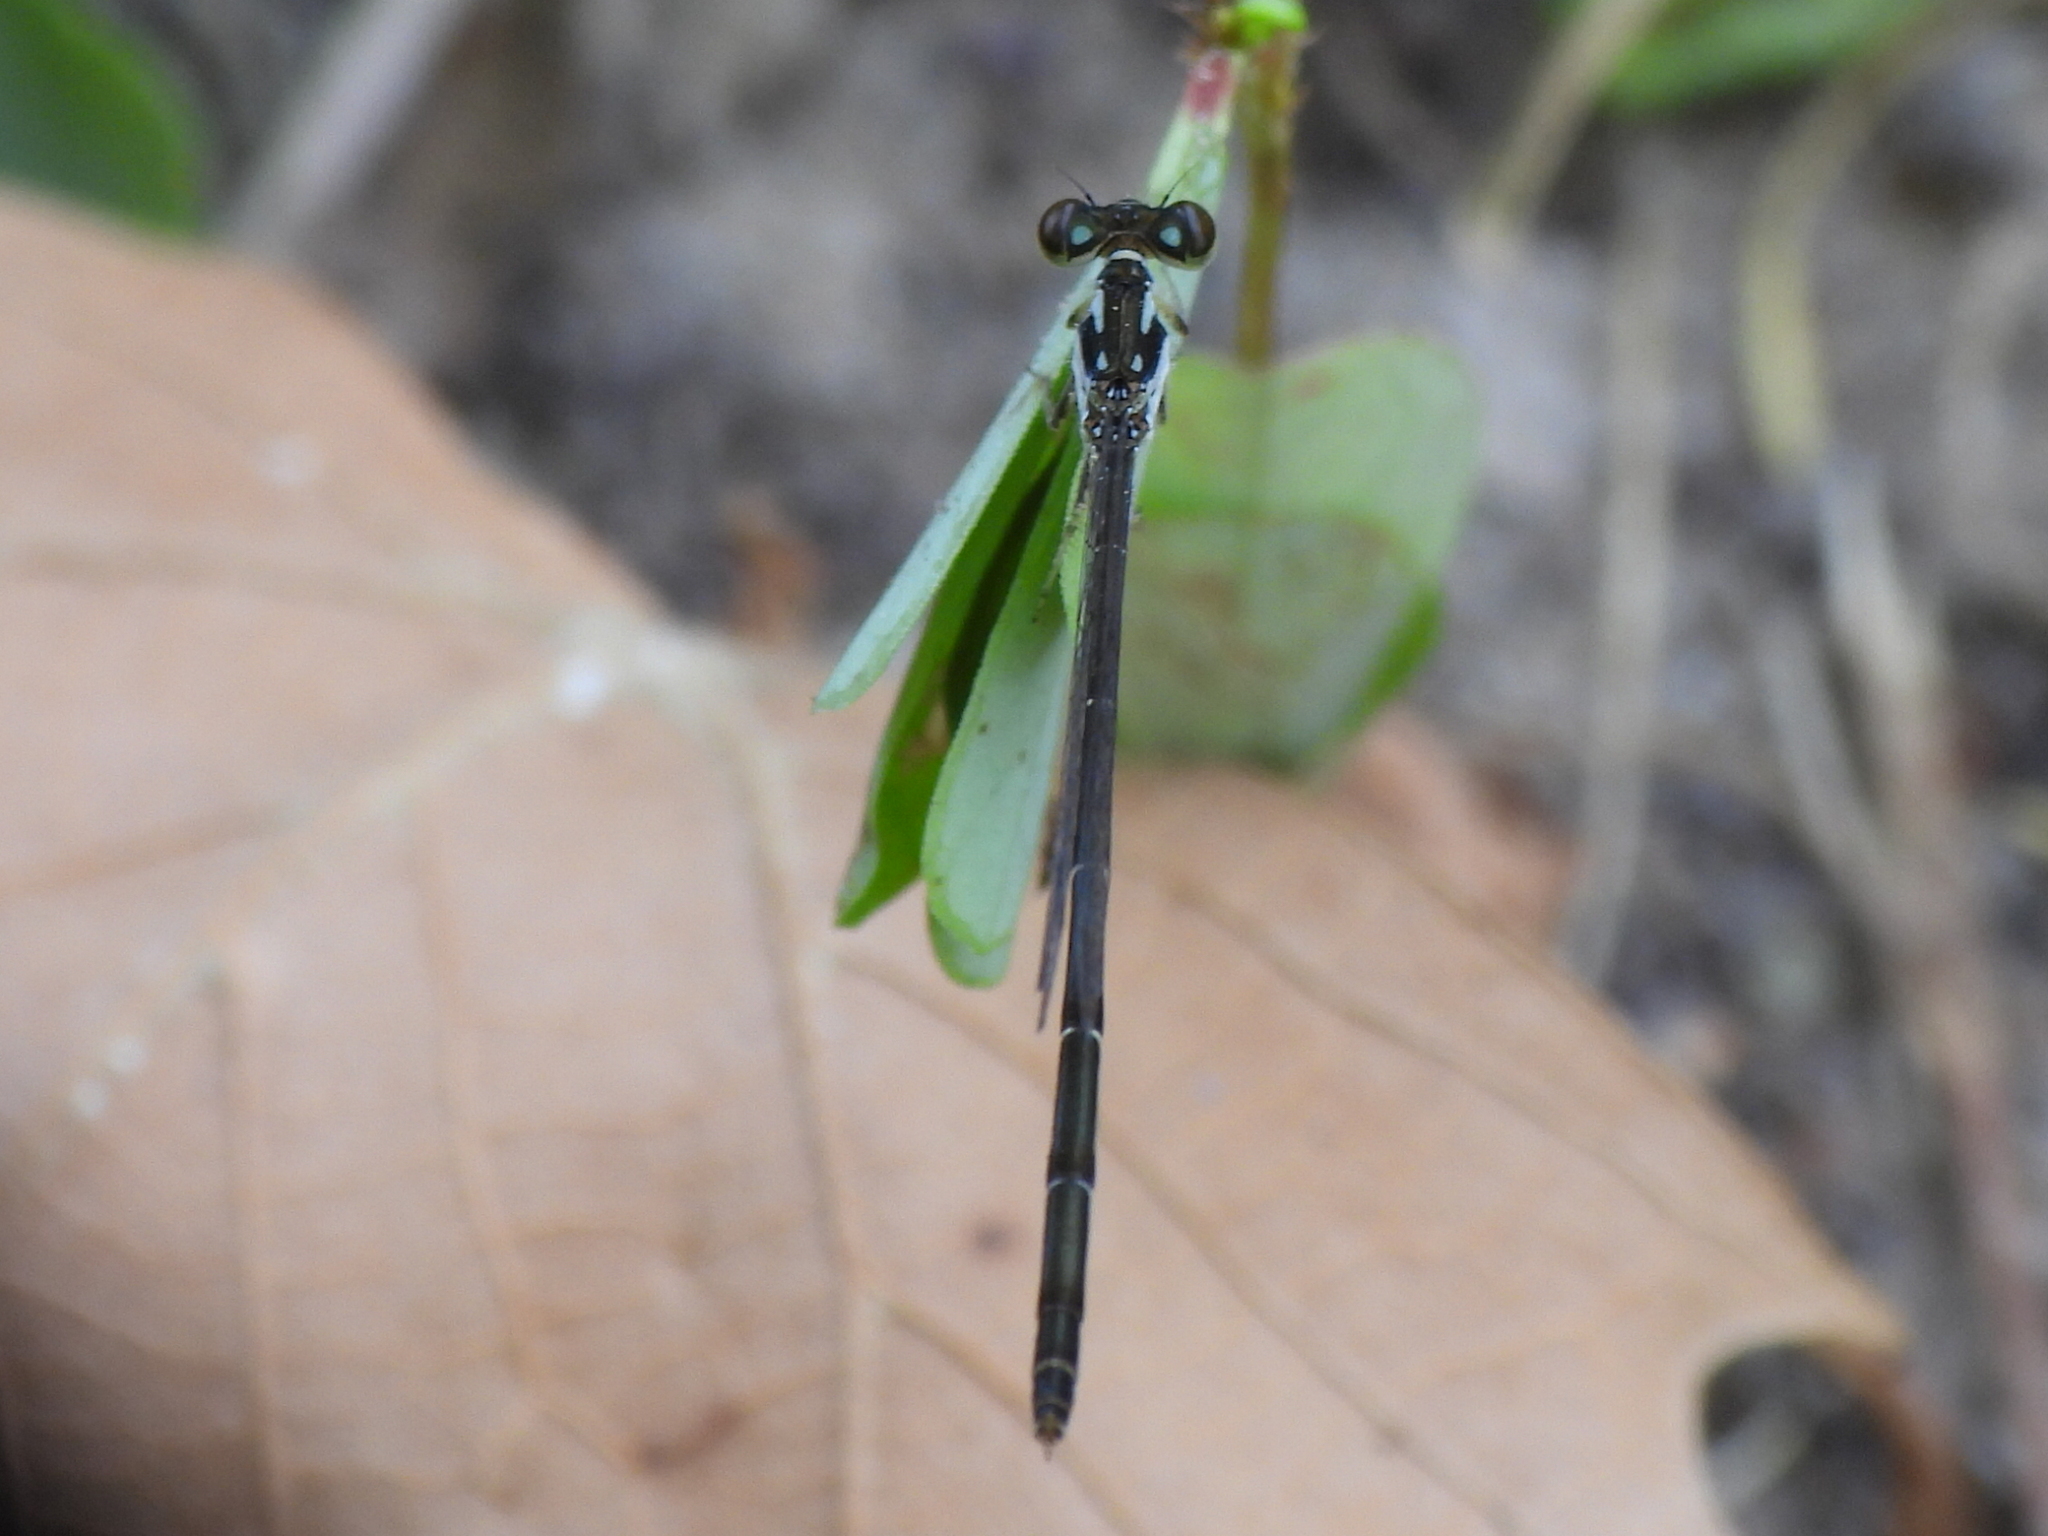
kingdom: Animalia
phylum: Arthropoda
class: Insecta
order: Odonata
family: Coenagrionidae
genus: Ischnura
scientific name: Ischnura posita
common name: Fragile forktail
